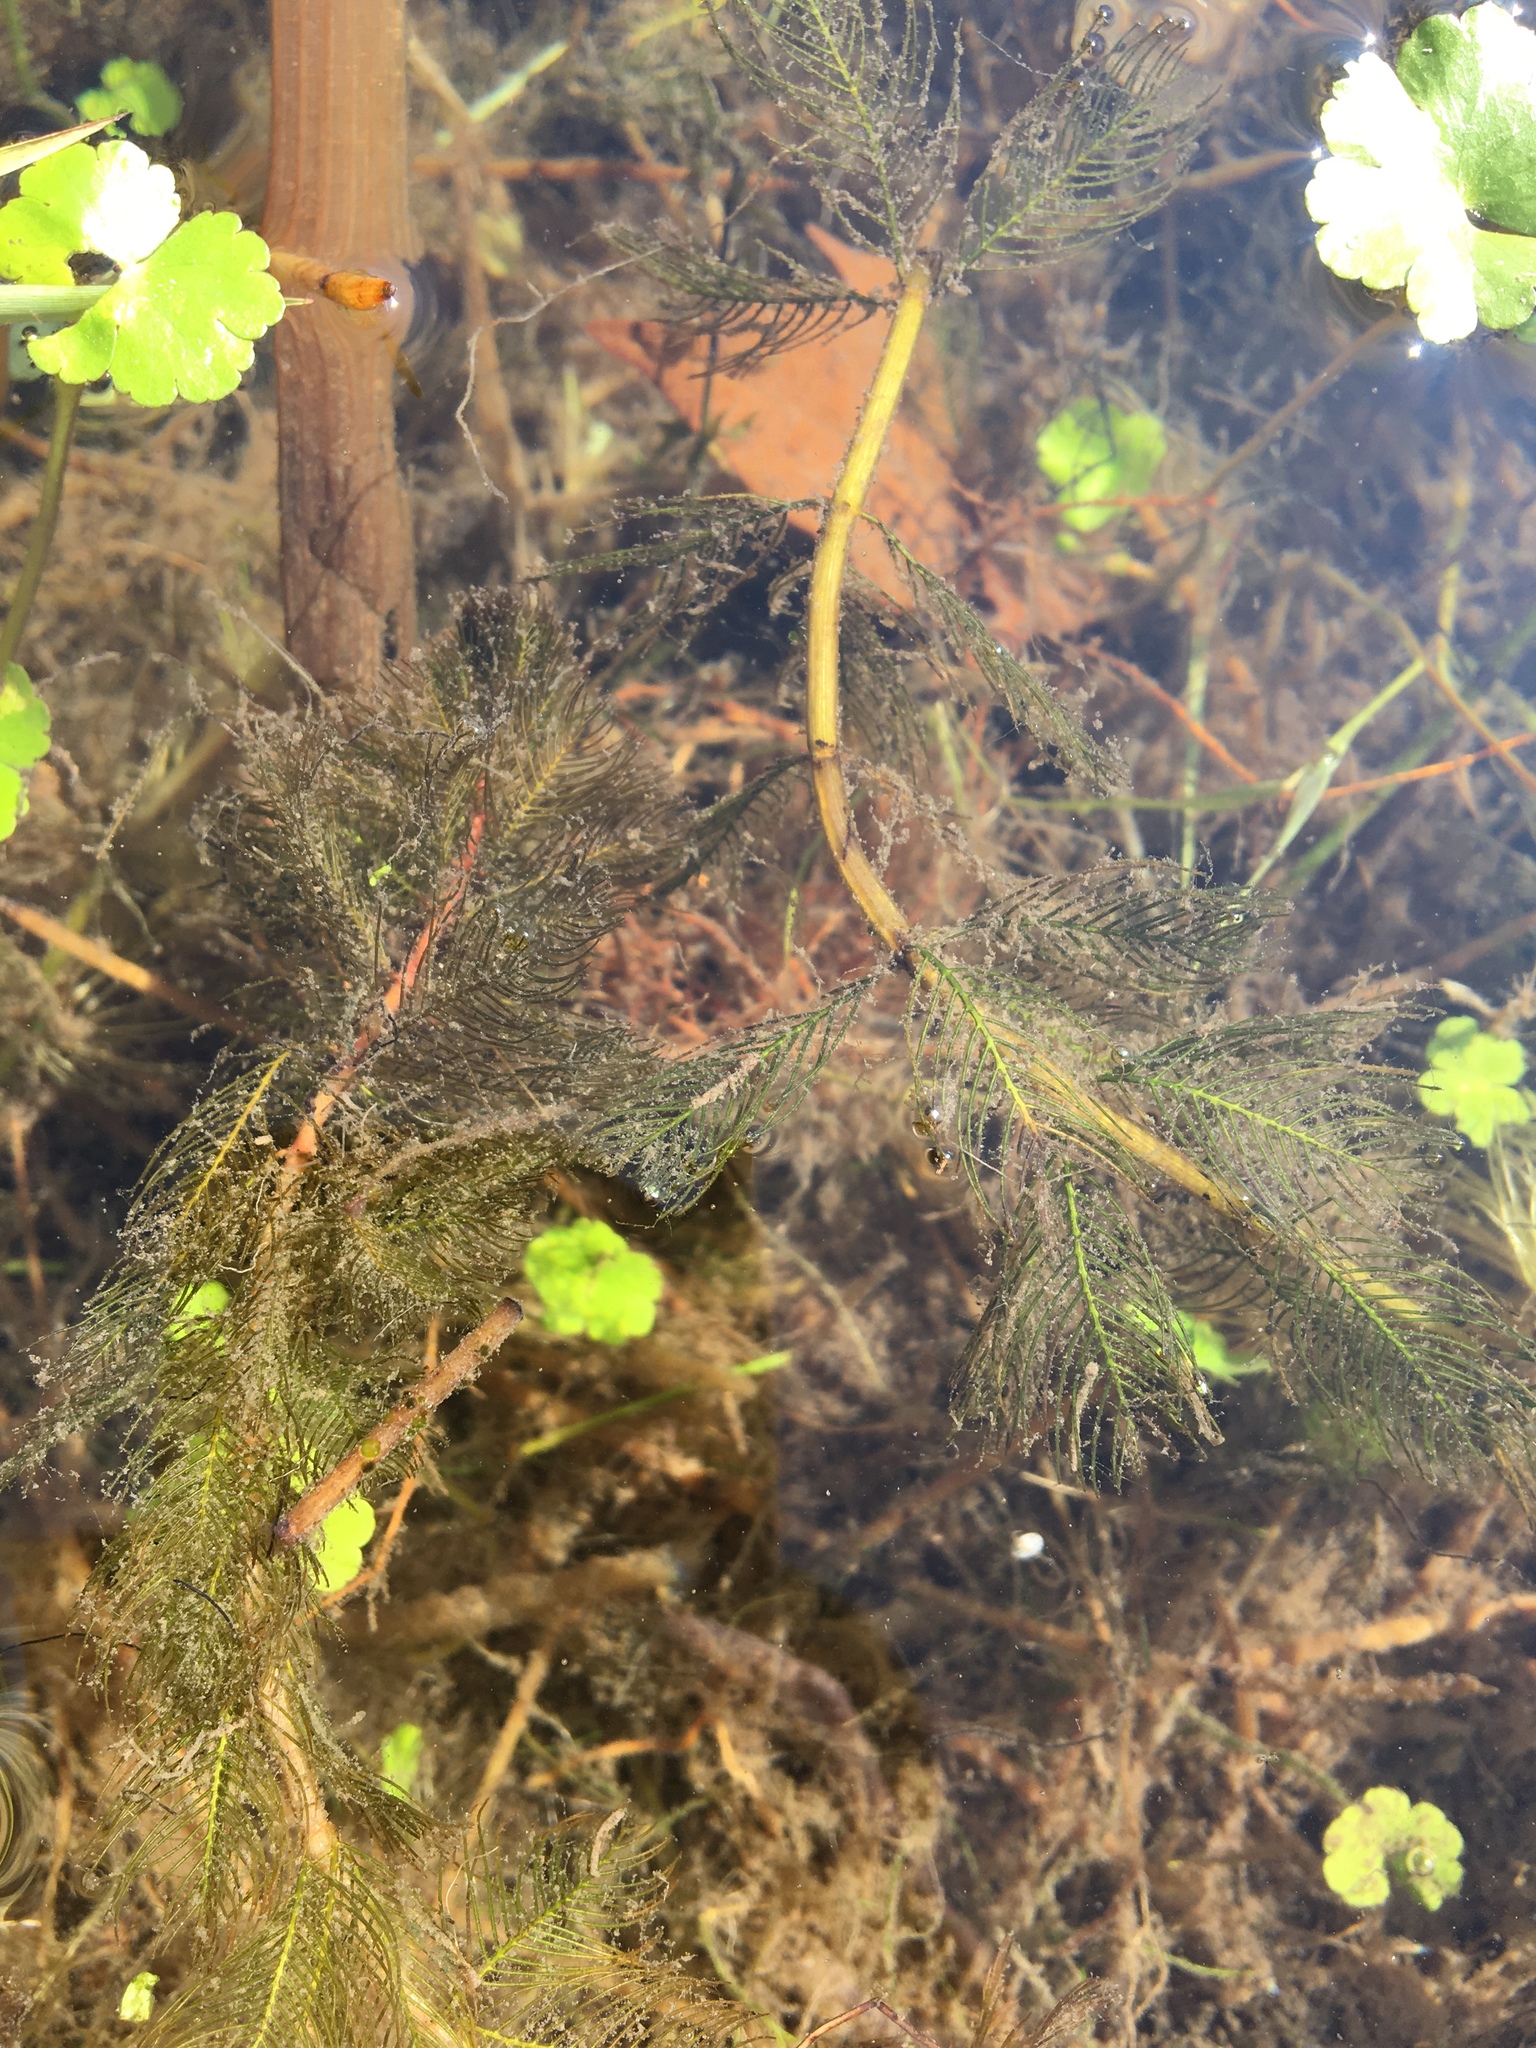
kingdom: Plantae
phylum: Tracheophyta
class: Magnoliopsida
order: Saxifragales
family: Haloragaceae
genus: Myriophyllum
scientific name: Myriophyllum spicatum
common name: Spiked water-milfoil
